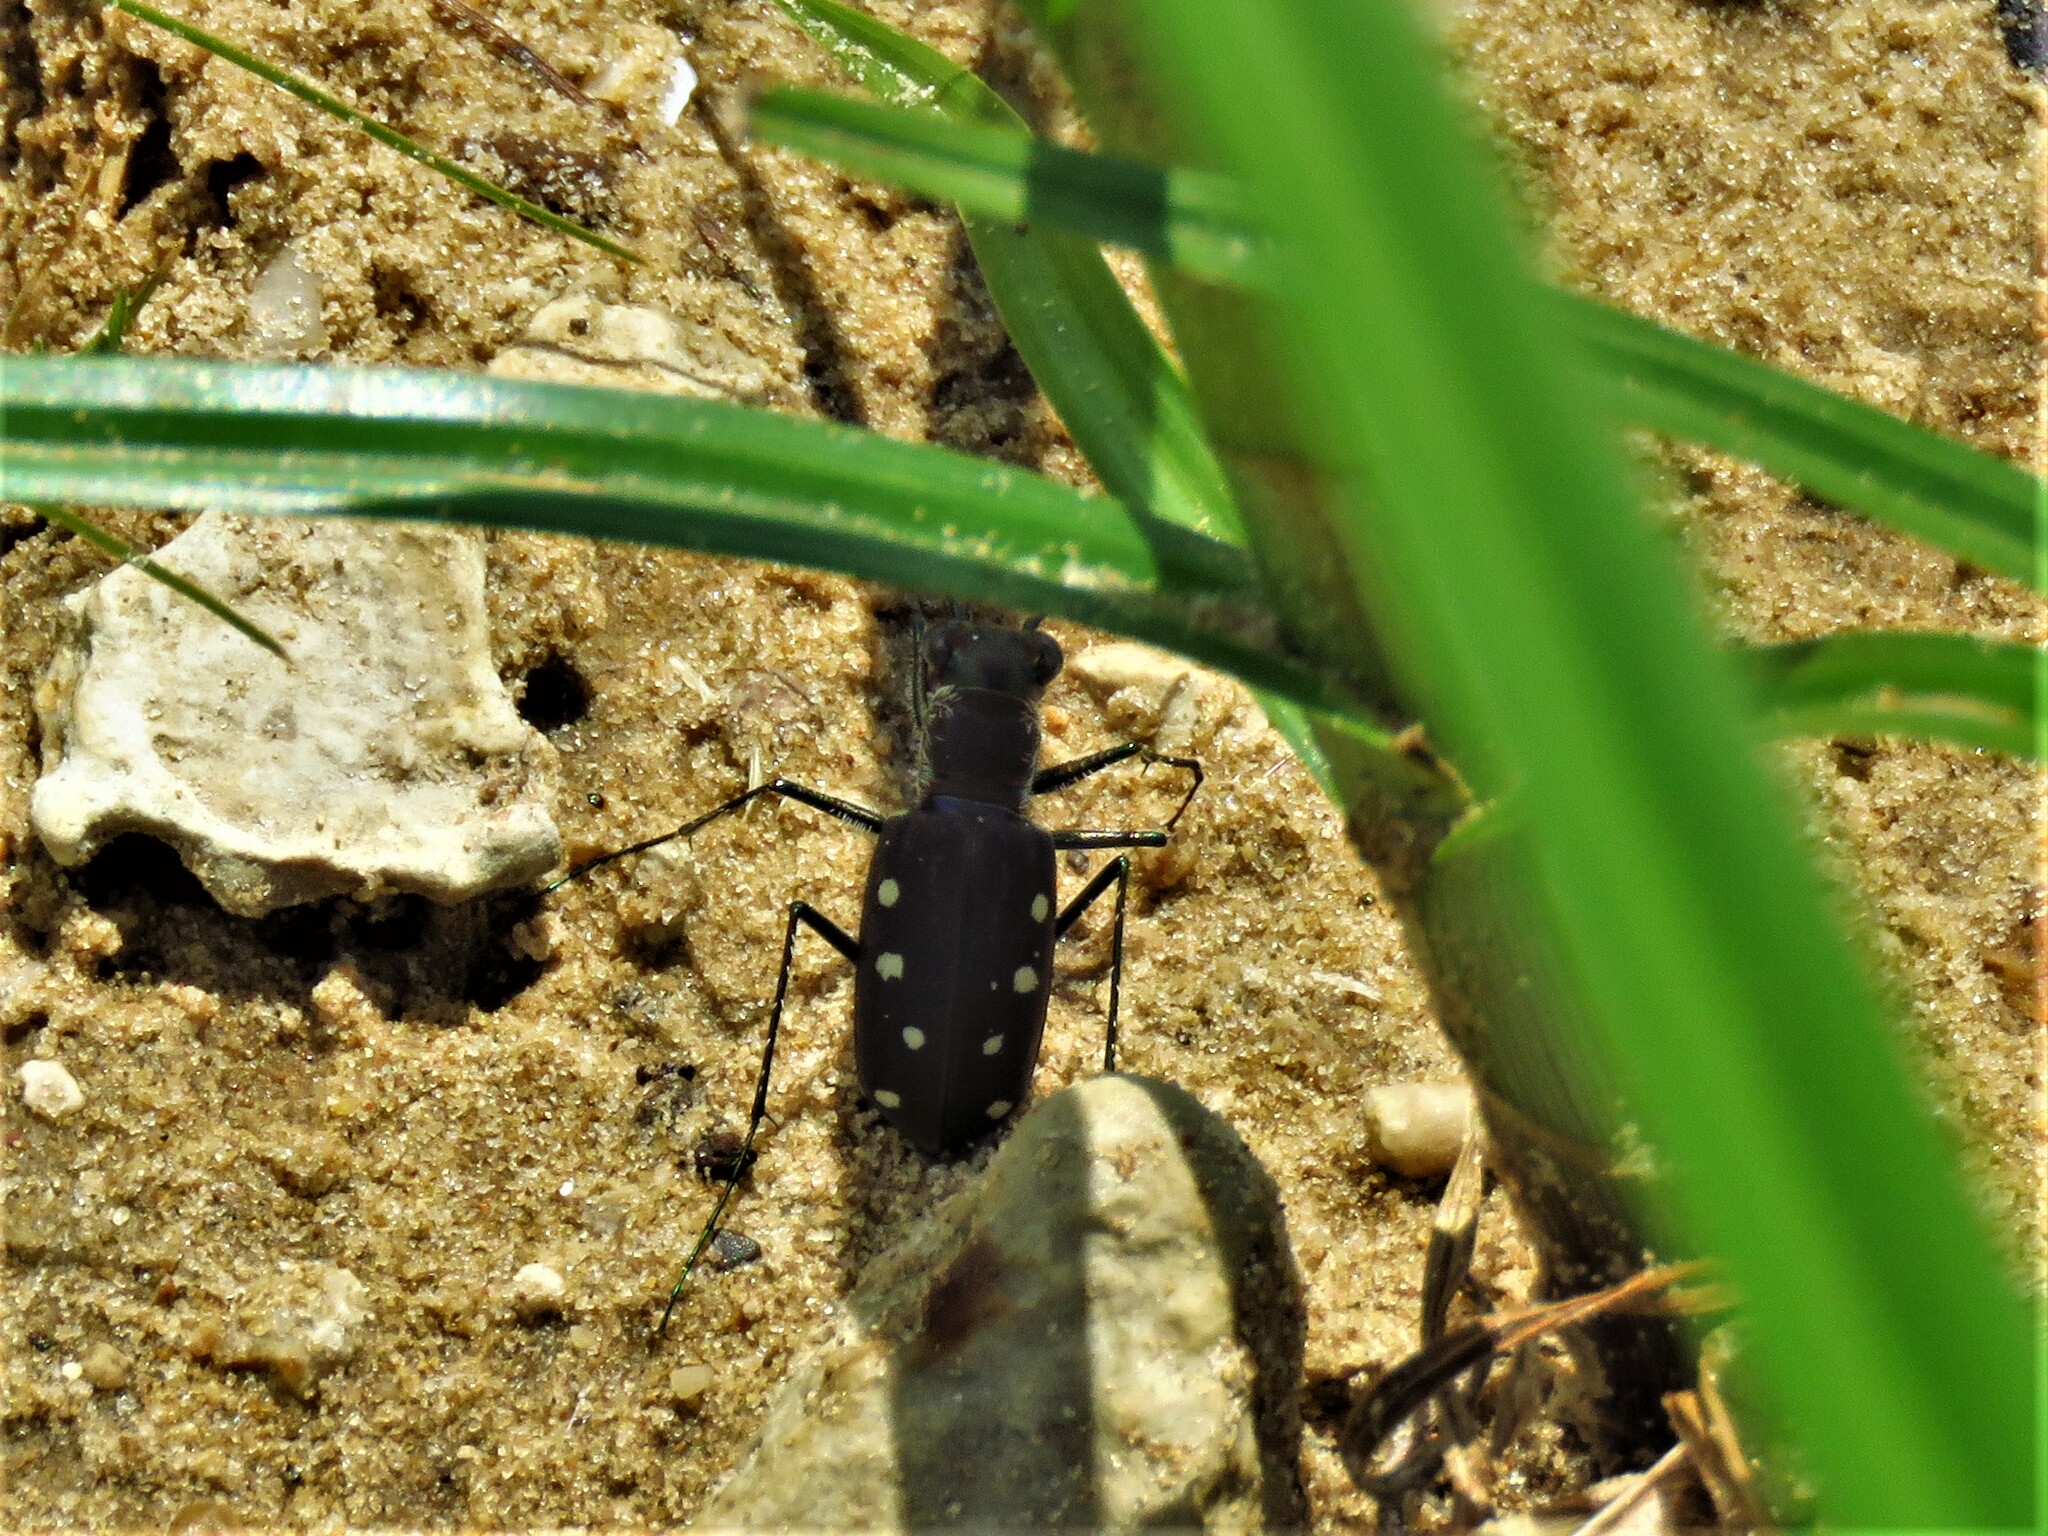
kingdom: Animalia
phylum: Arthropoda
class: Insecta
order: Coleoptera
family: Carabidae
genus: Cicindela
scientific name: Cicindela ocellata
